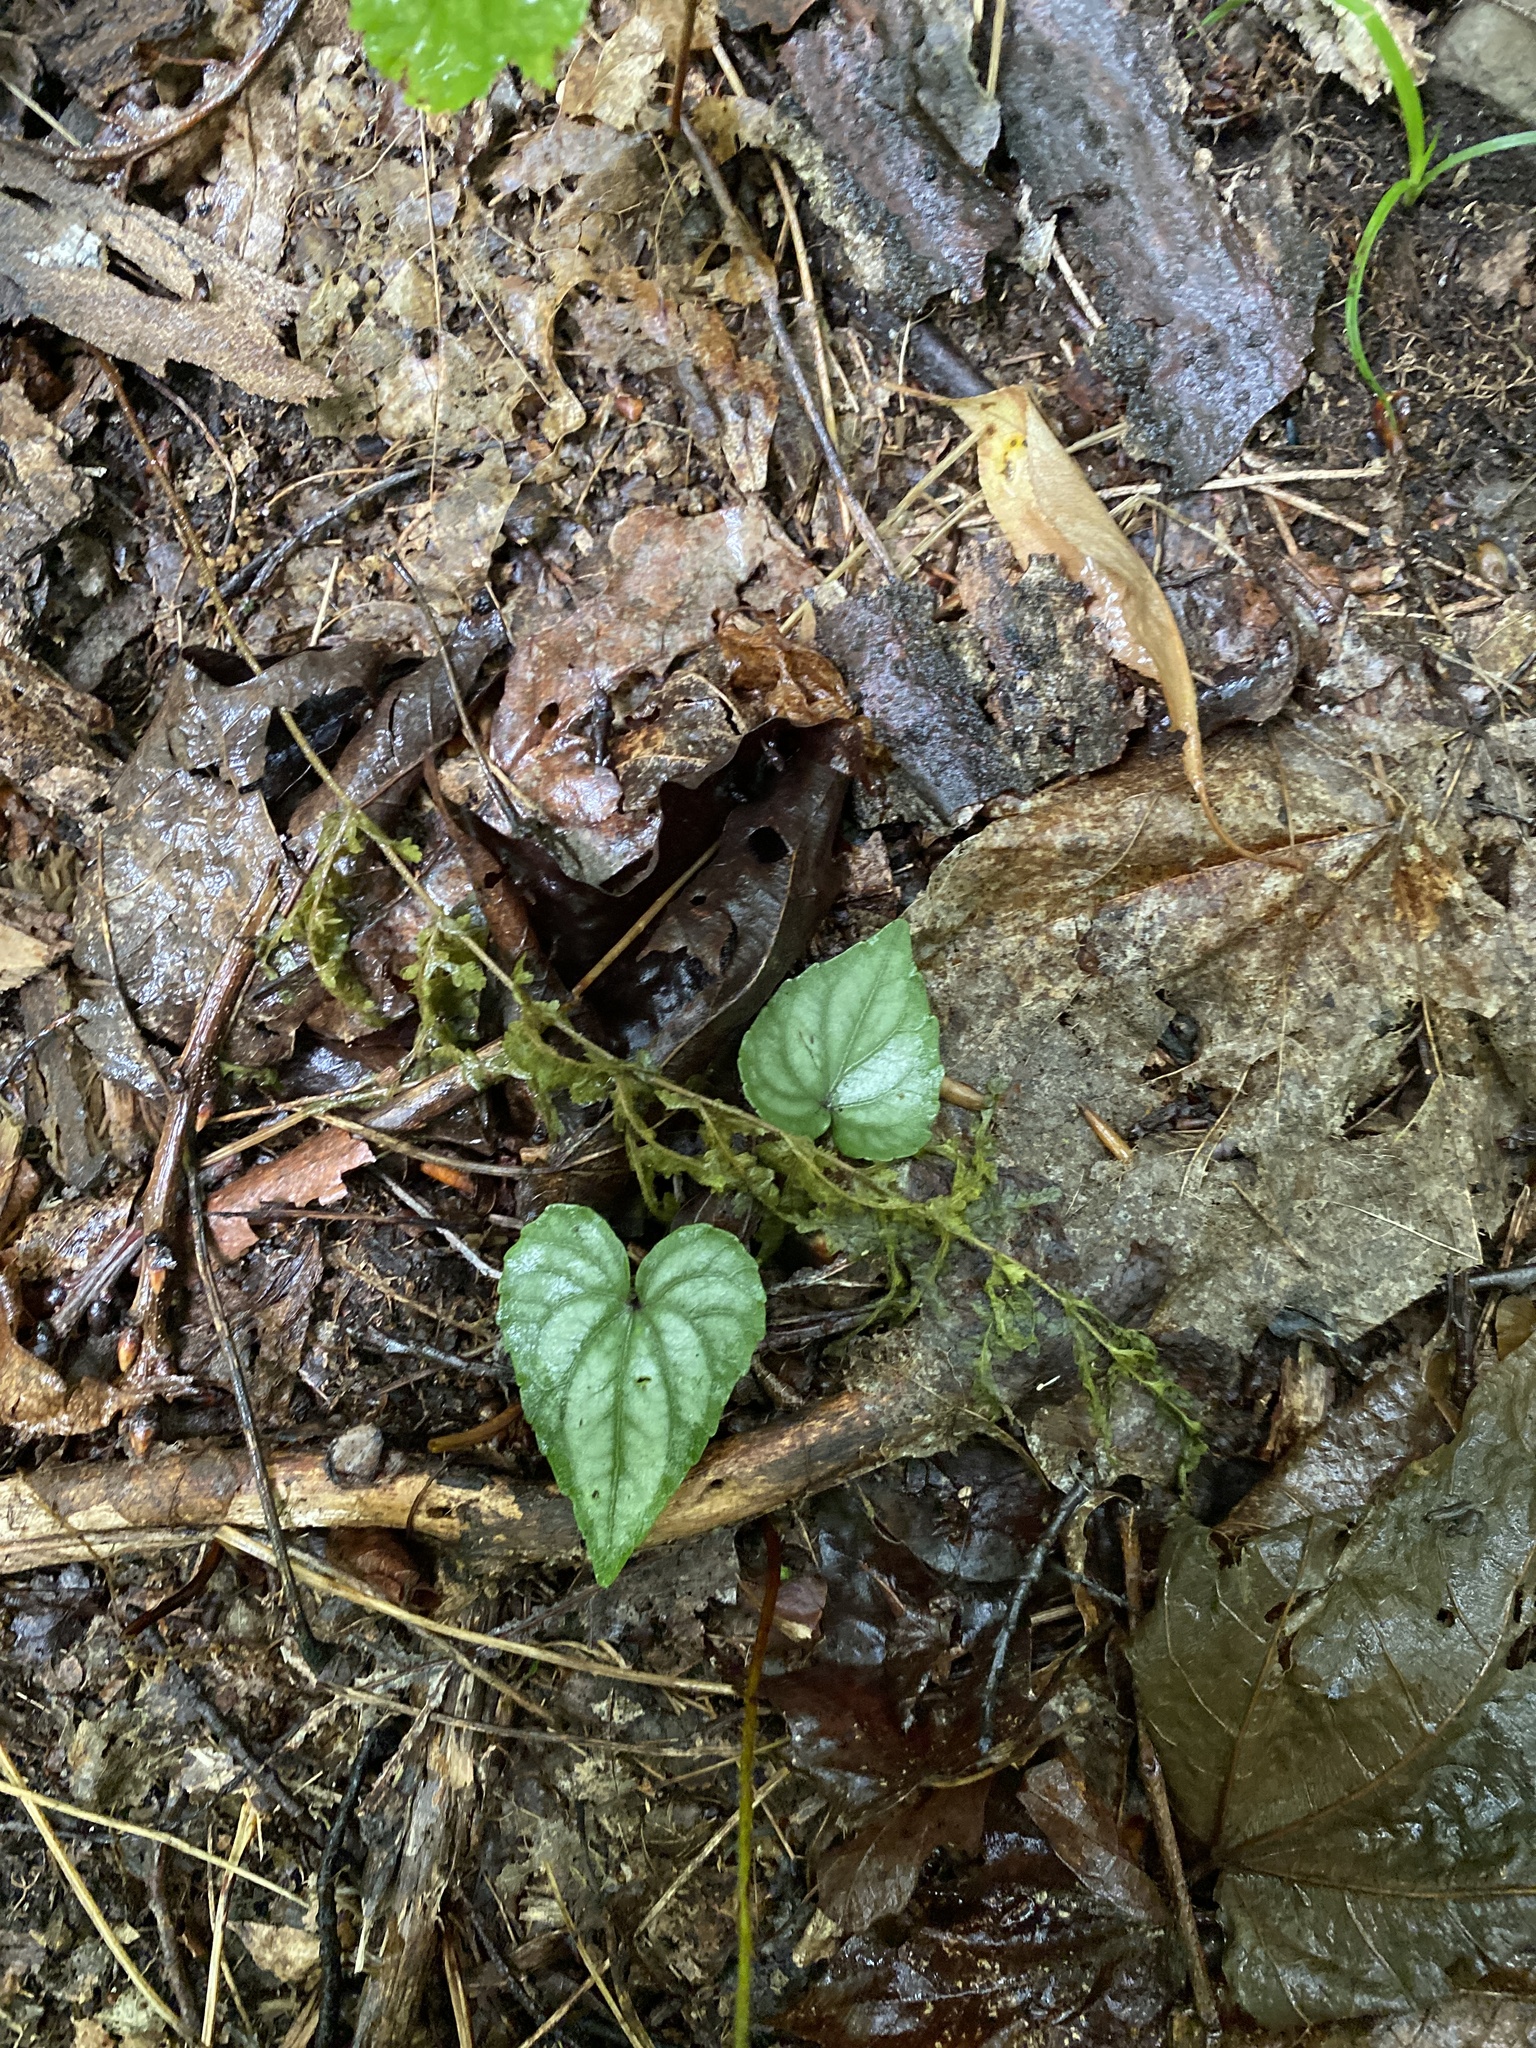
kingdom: Plantae
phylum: Tracheophyta
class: Magnoliopsida
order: Malpighiales
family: Violaceae
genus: Viola
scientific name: Viola hastata
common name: Spear-leaf violet
